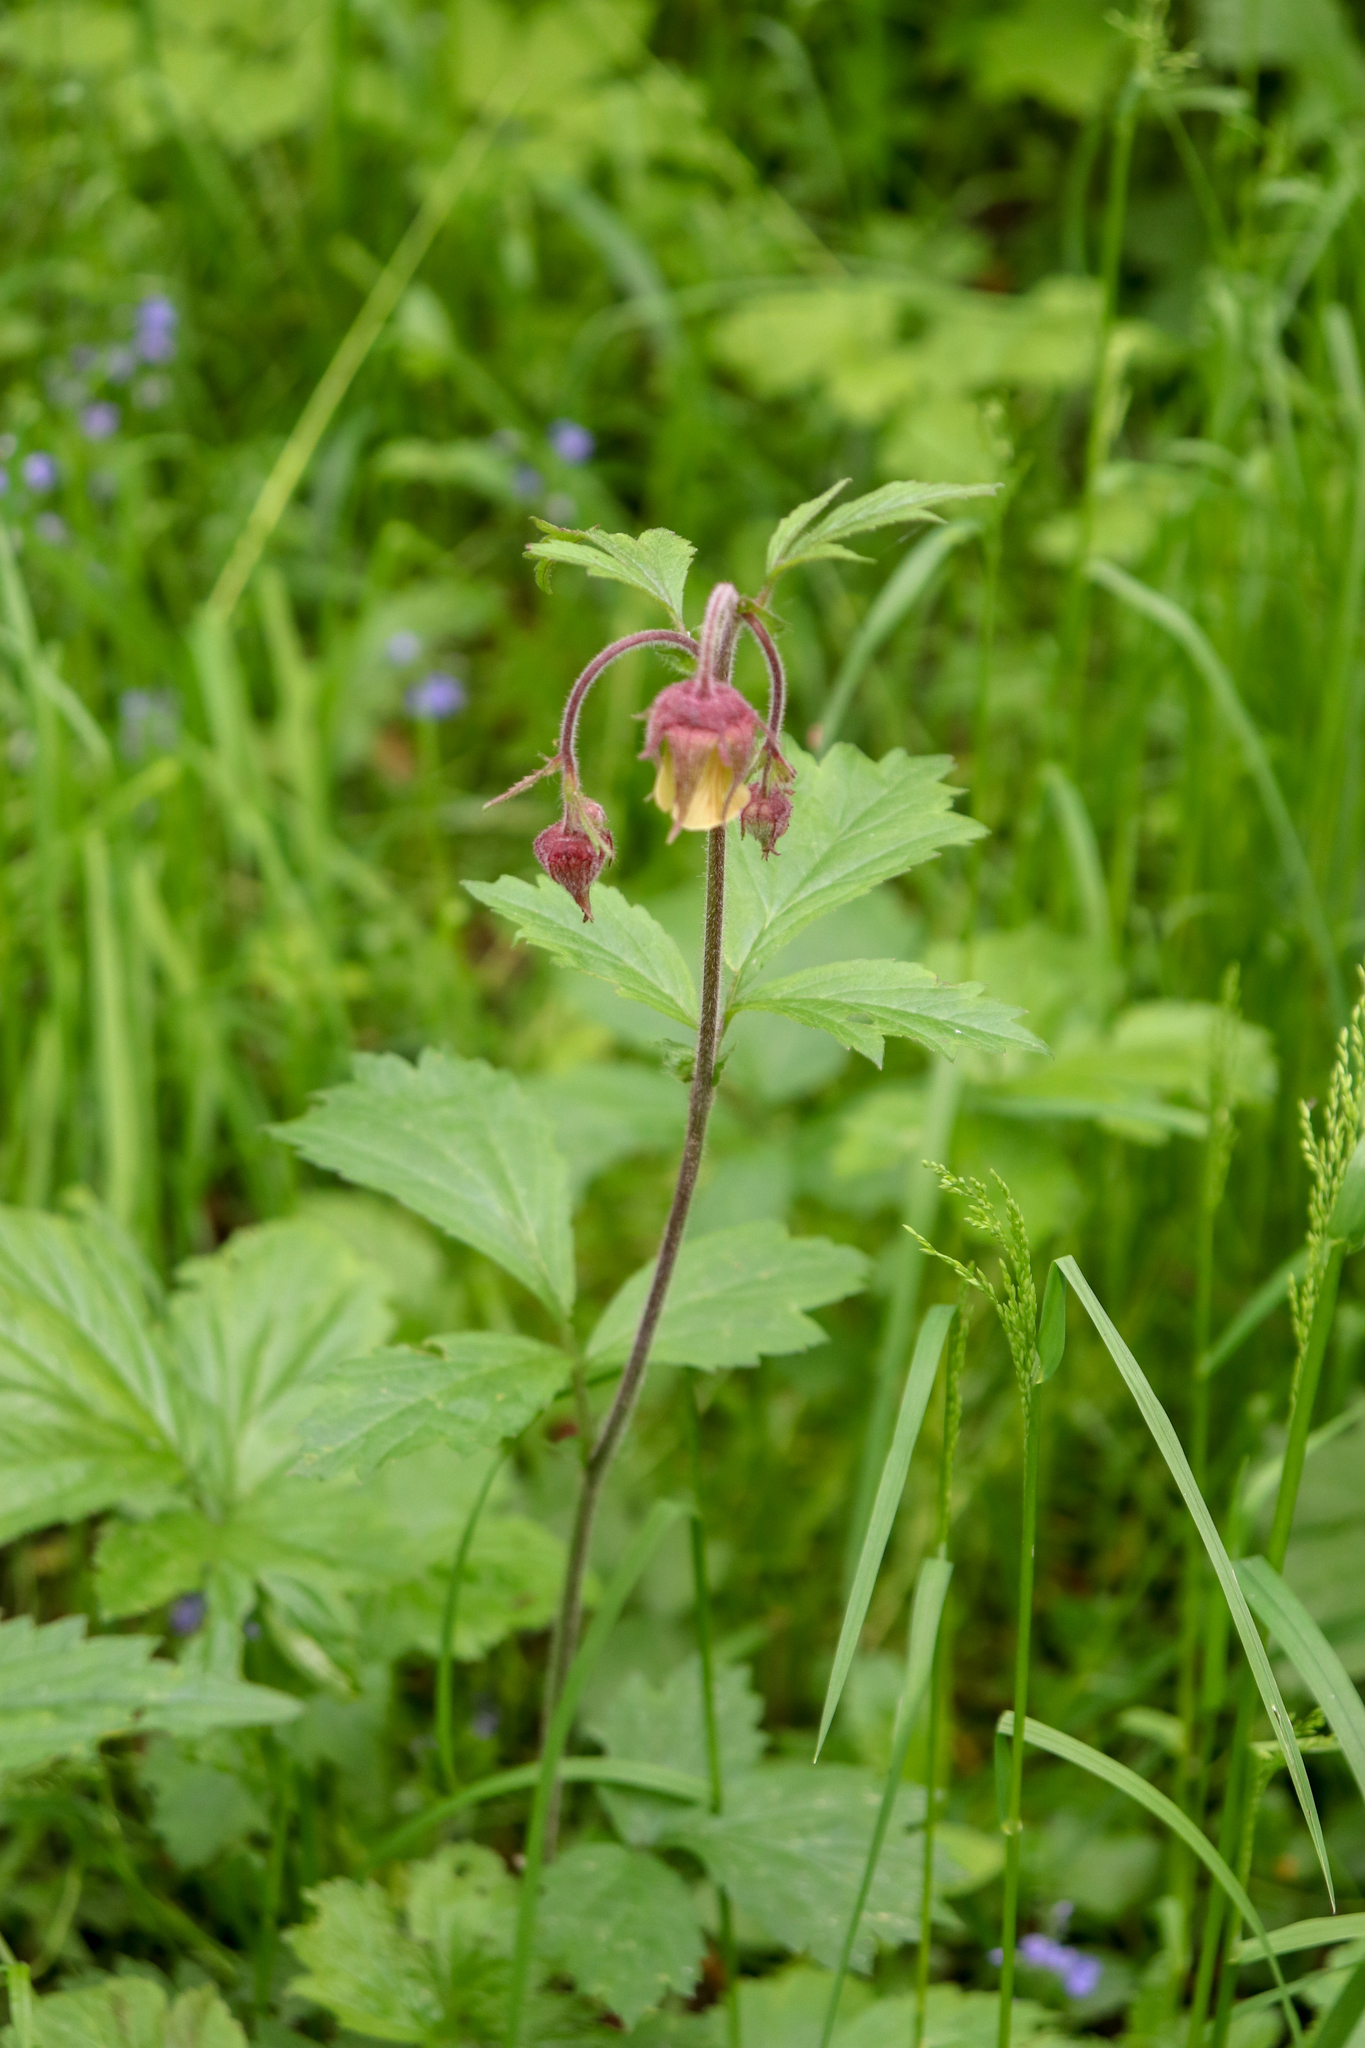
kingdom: Plantae
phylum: Tracheophyta
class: Magnoliopsida
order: Rosales
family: Rosaceae
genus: Geum
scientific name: Geum rivale
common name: Water avens
